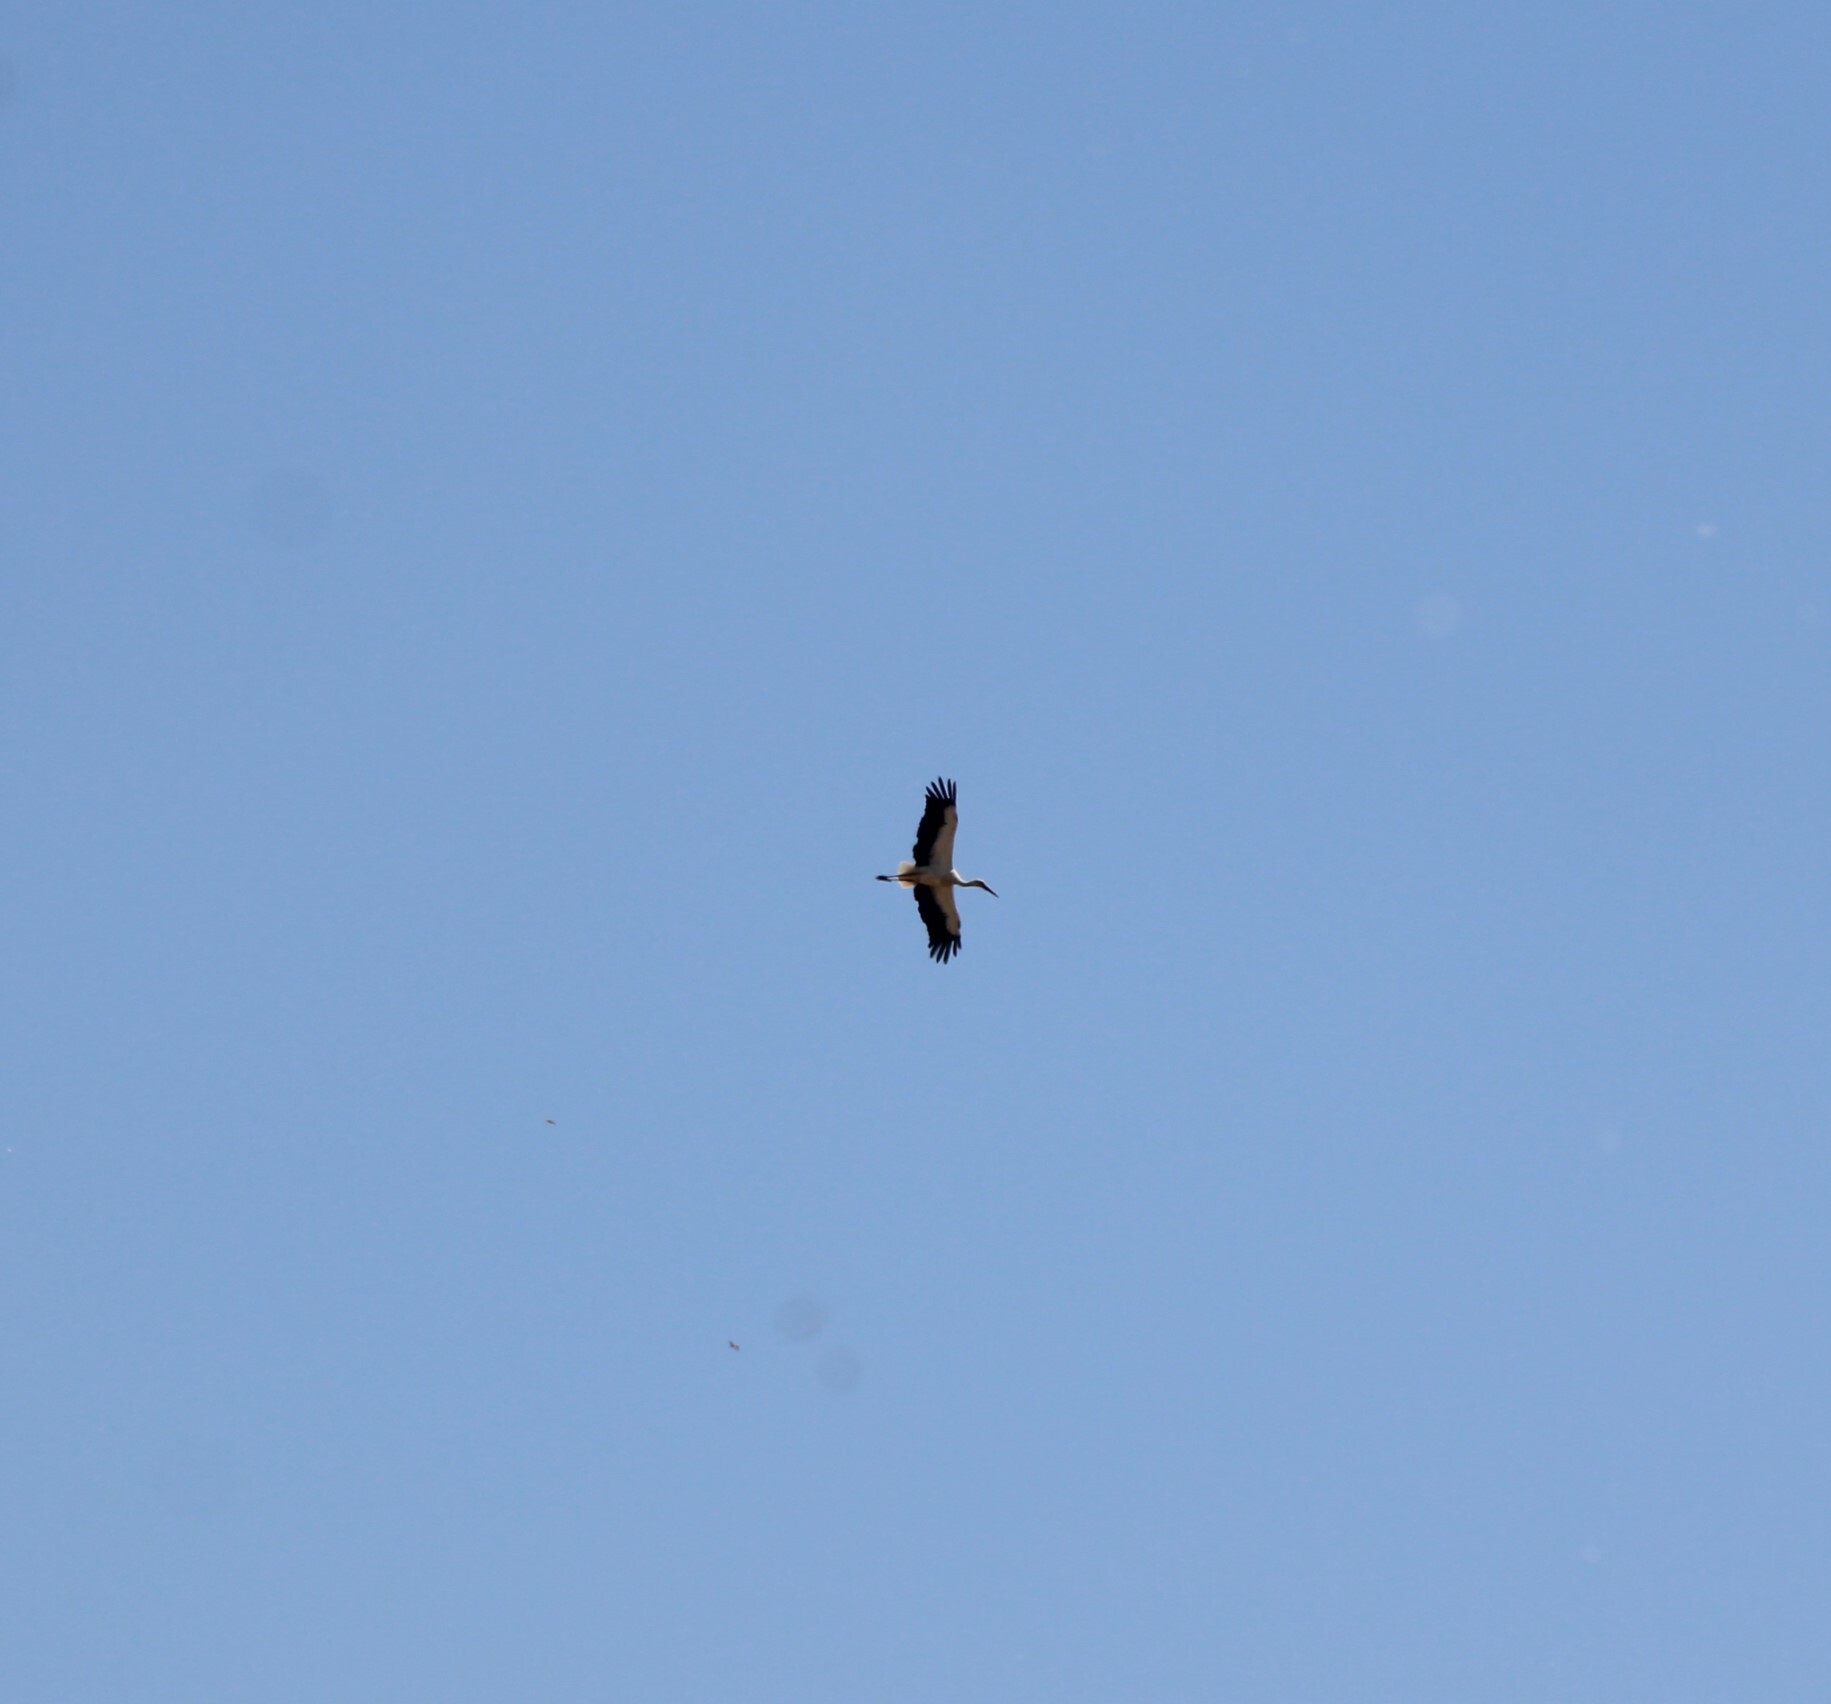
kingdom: Animalia
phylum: Chordata
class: Aves
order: Ciconiiformes
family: Ciconiidae
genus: Ciconia
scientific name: Ciconia ciconia
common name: White stork
